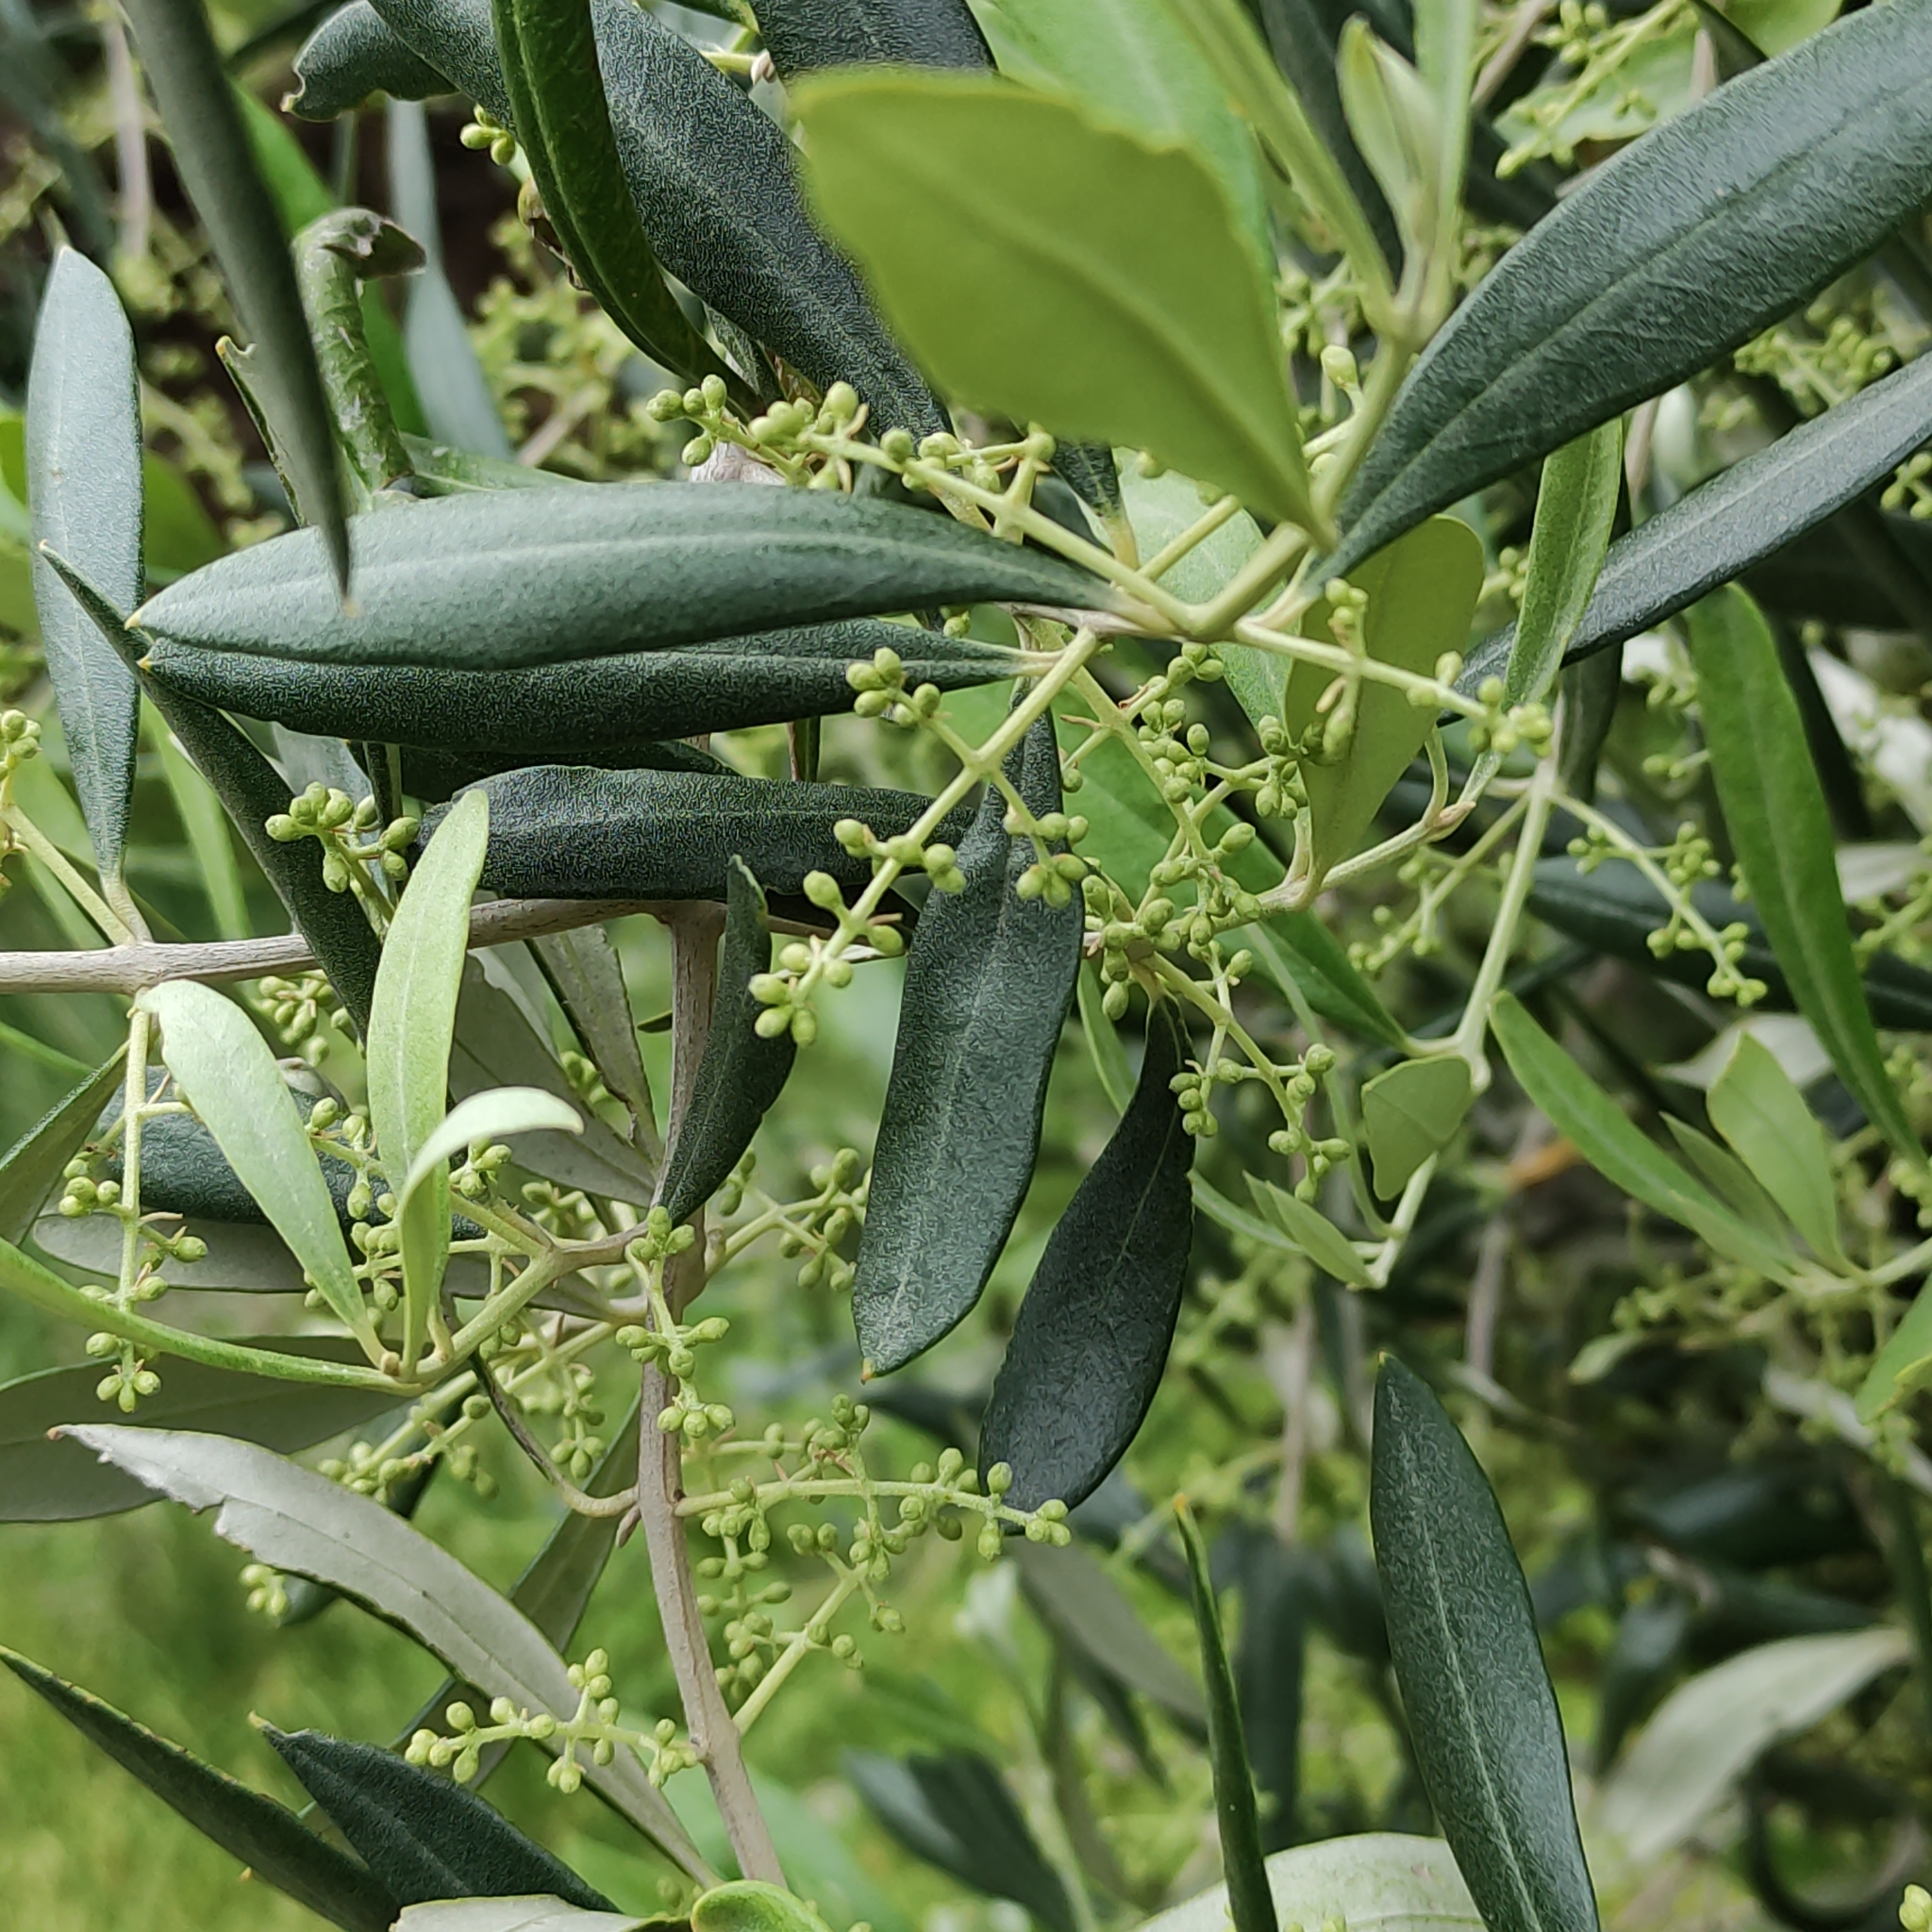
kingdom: Plantae
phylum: Tracheophyta
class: Magnoliopsida
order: Lamiales
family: Oleaceae
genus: Olea
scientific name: Olea europaea
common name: Olive
